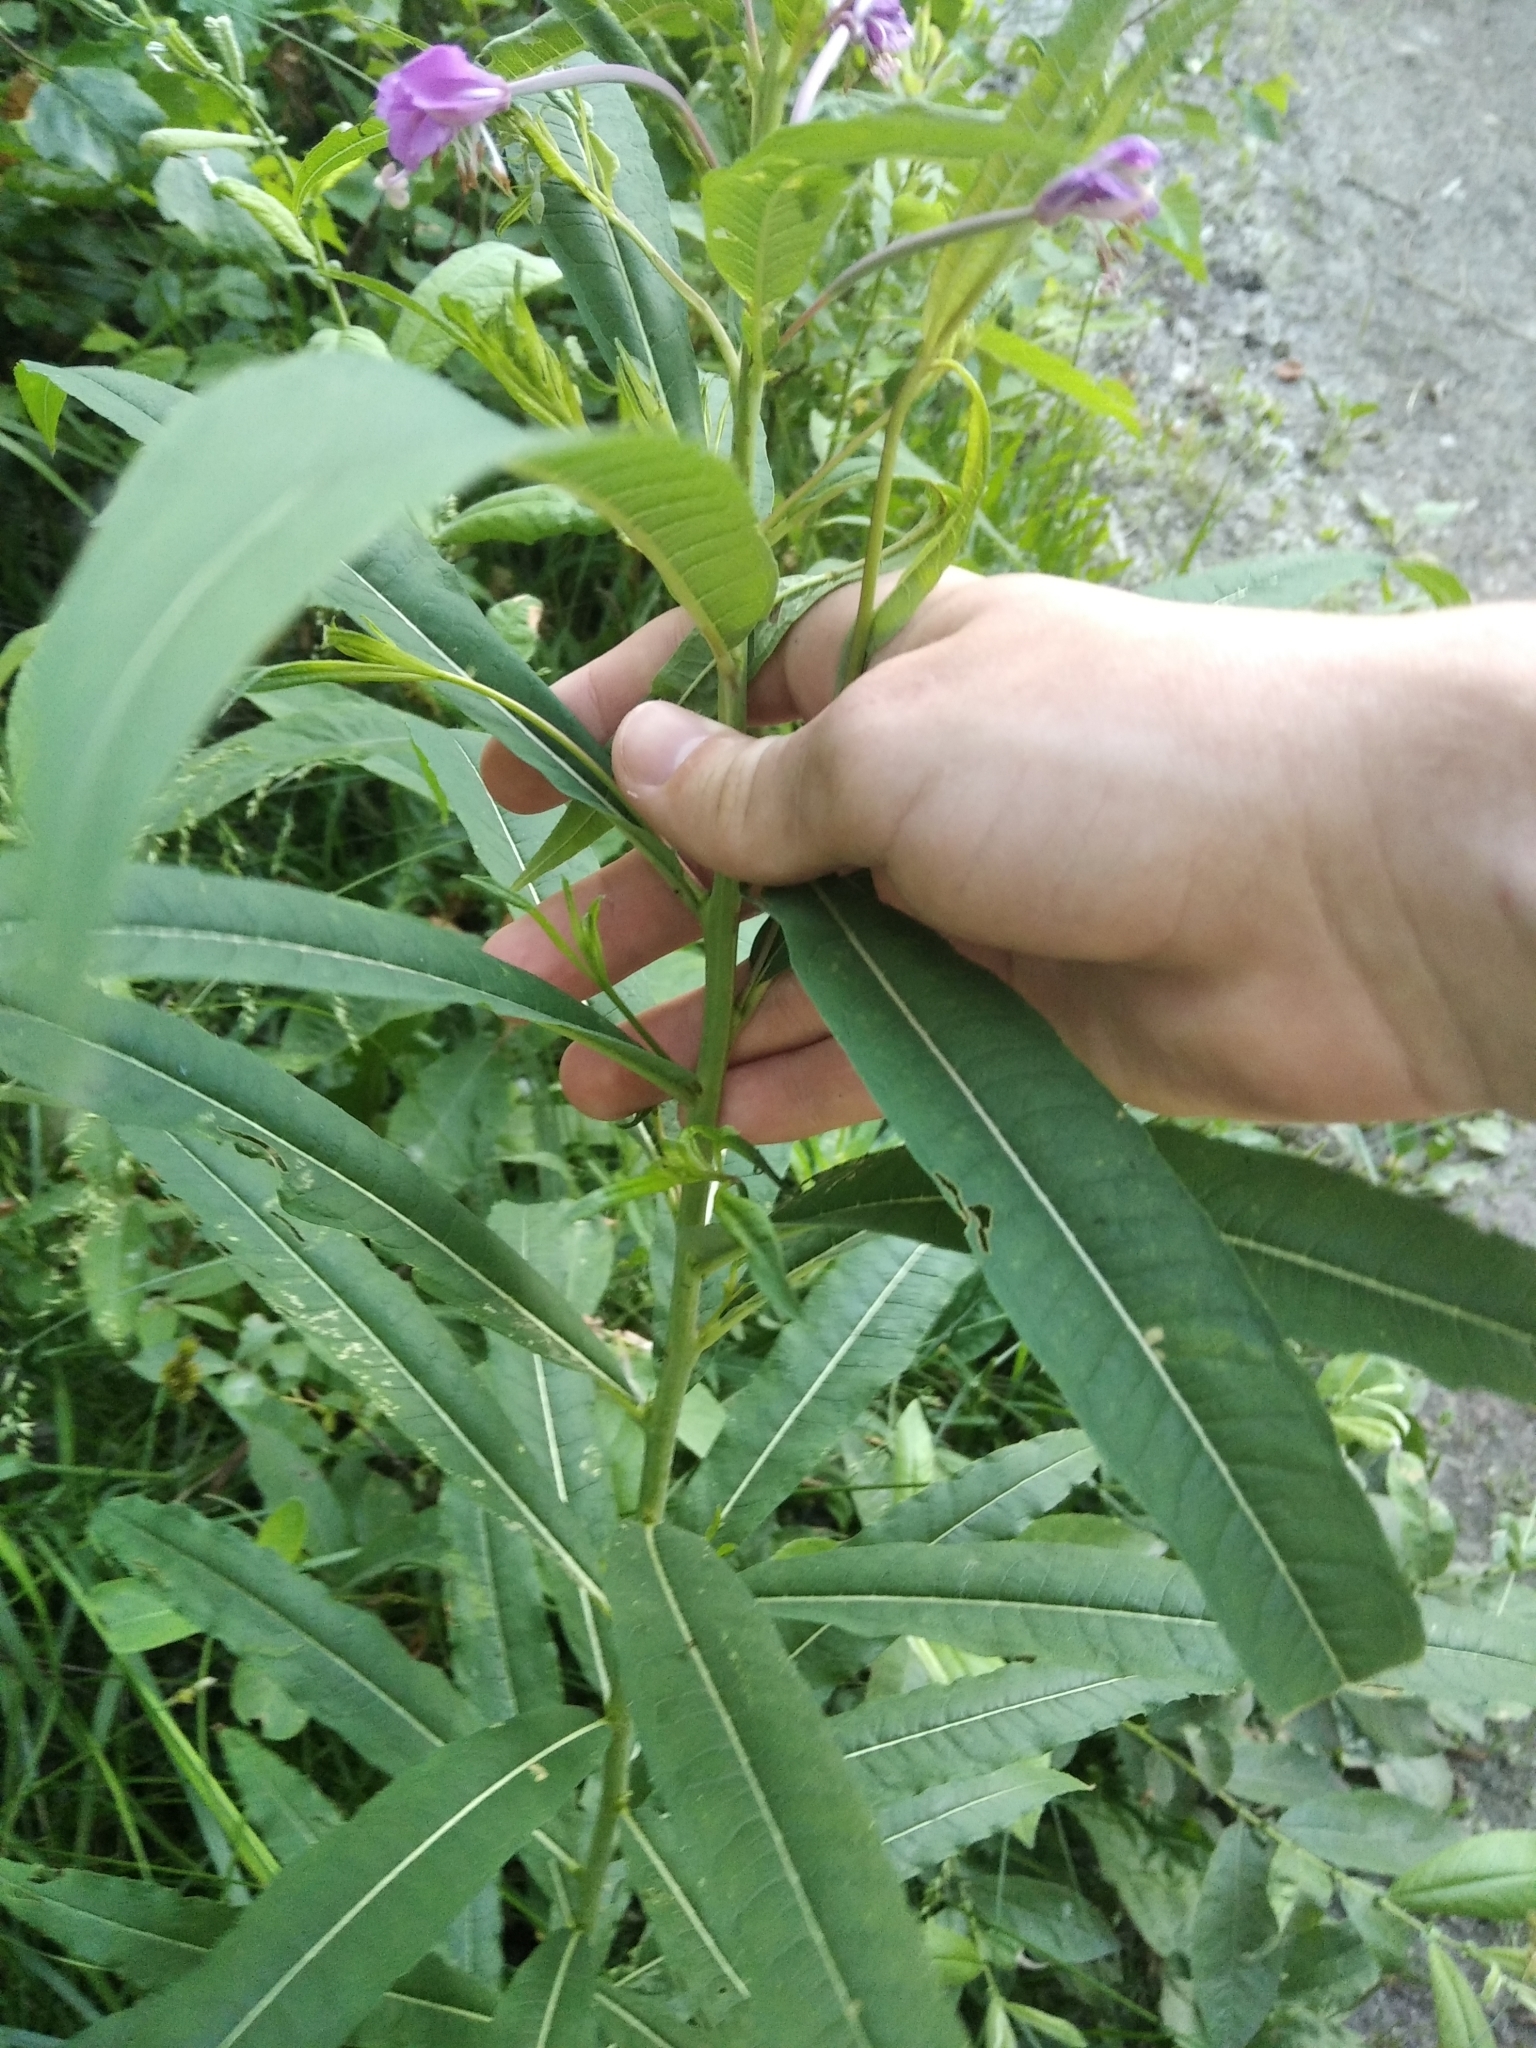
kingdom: Plantae
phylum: Tracheophyta
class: Magnoliopsida
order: Myrtales
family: Onagraceae
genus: Chamaenerion
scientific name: Chamaenerion angustifolium
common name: Fireweed
